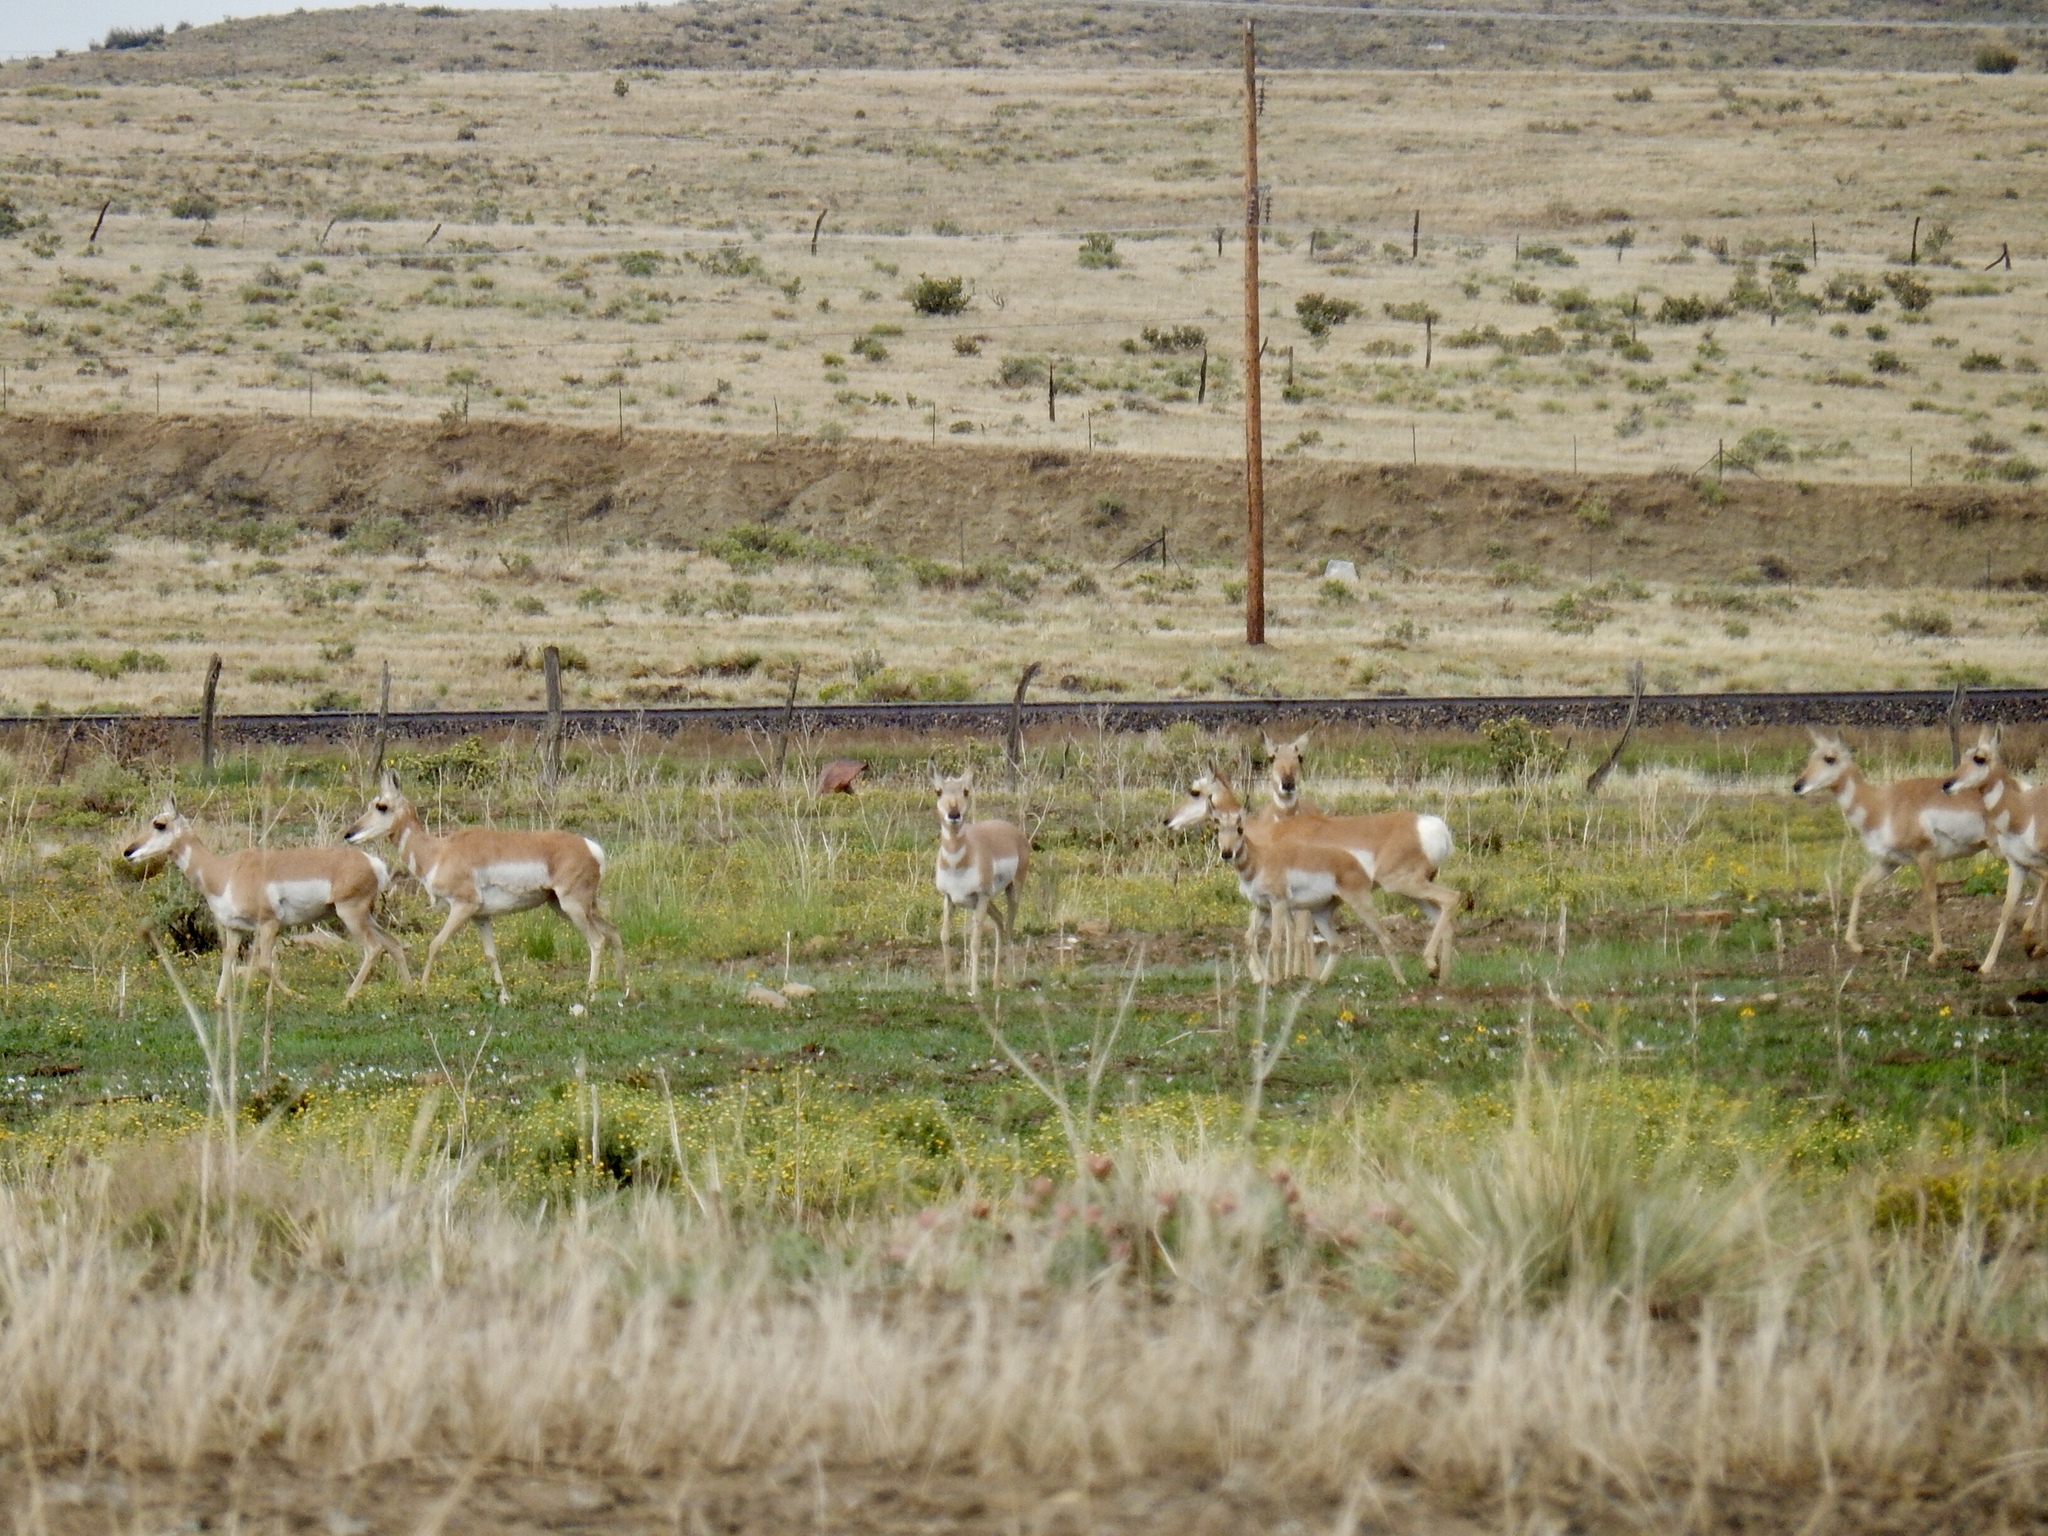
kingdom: Animalia
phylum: Chordata
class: Mammalia
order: Artiodactyla
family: Antilocapridae
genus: Antilocapra
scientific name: Antilocapra americana
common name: Pronghorn
